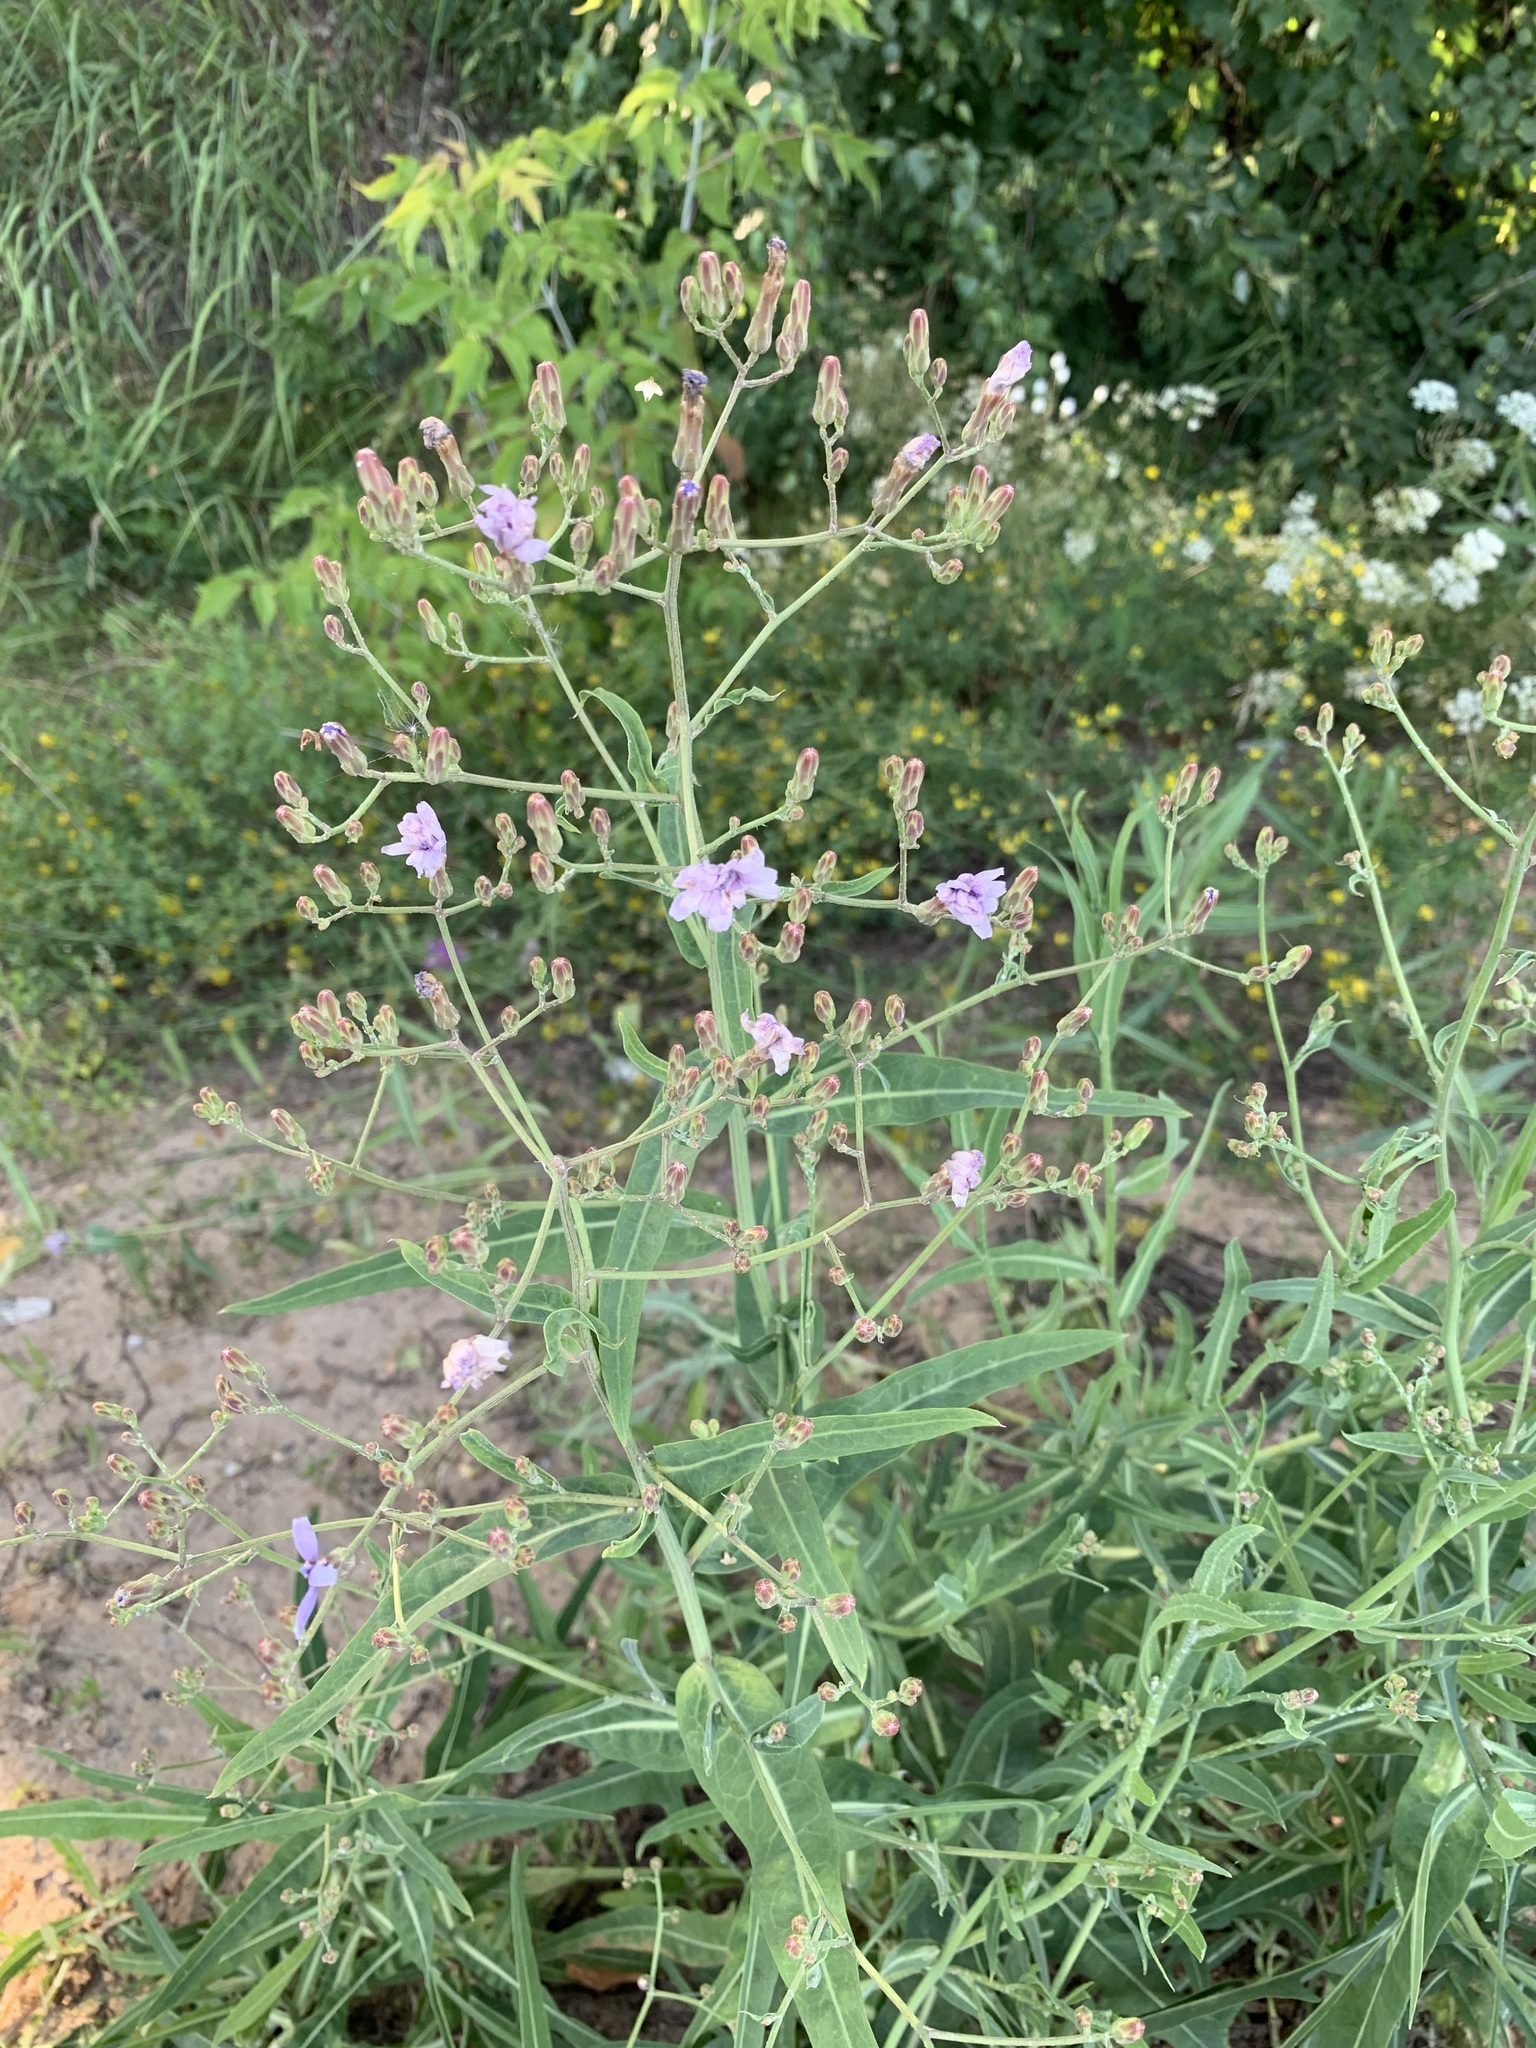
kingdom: Plantae
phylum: Tracheophyta
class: Magnoliopsida
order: Asterales
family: Asteraceae
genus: Lactuca
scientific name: Lactuca tatarica
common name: Blue lettuce
